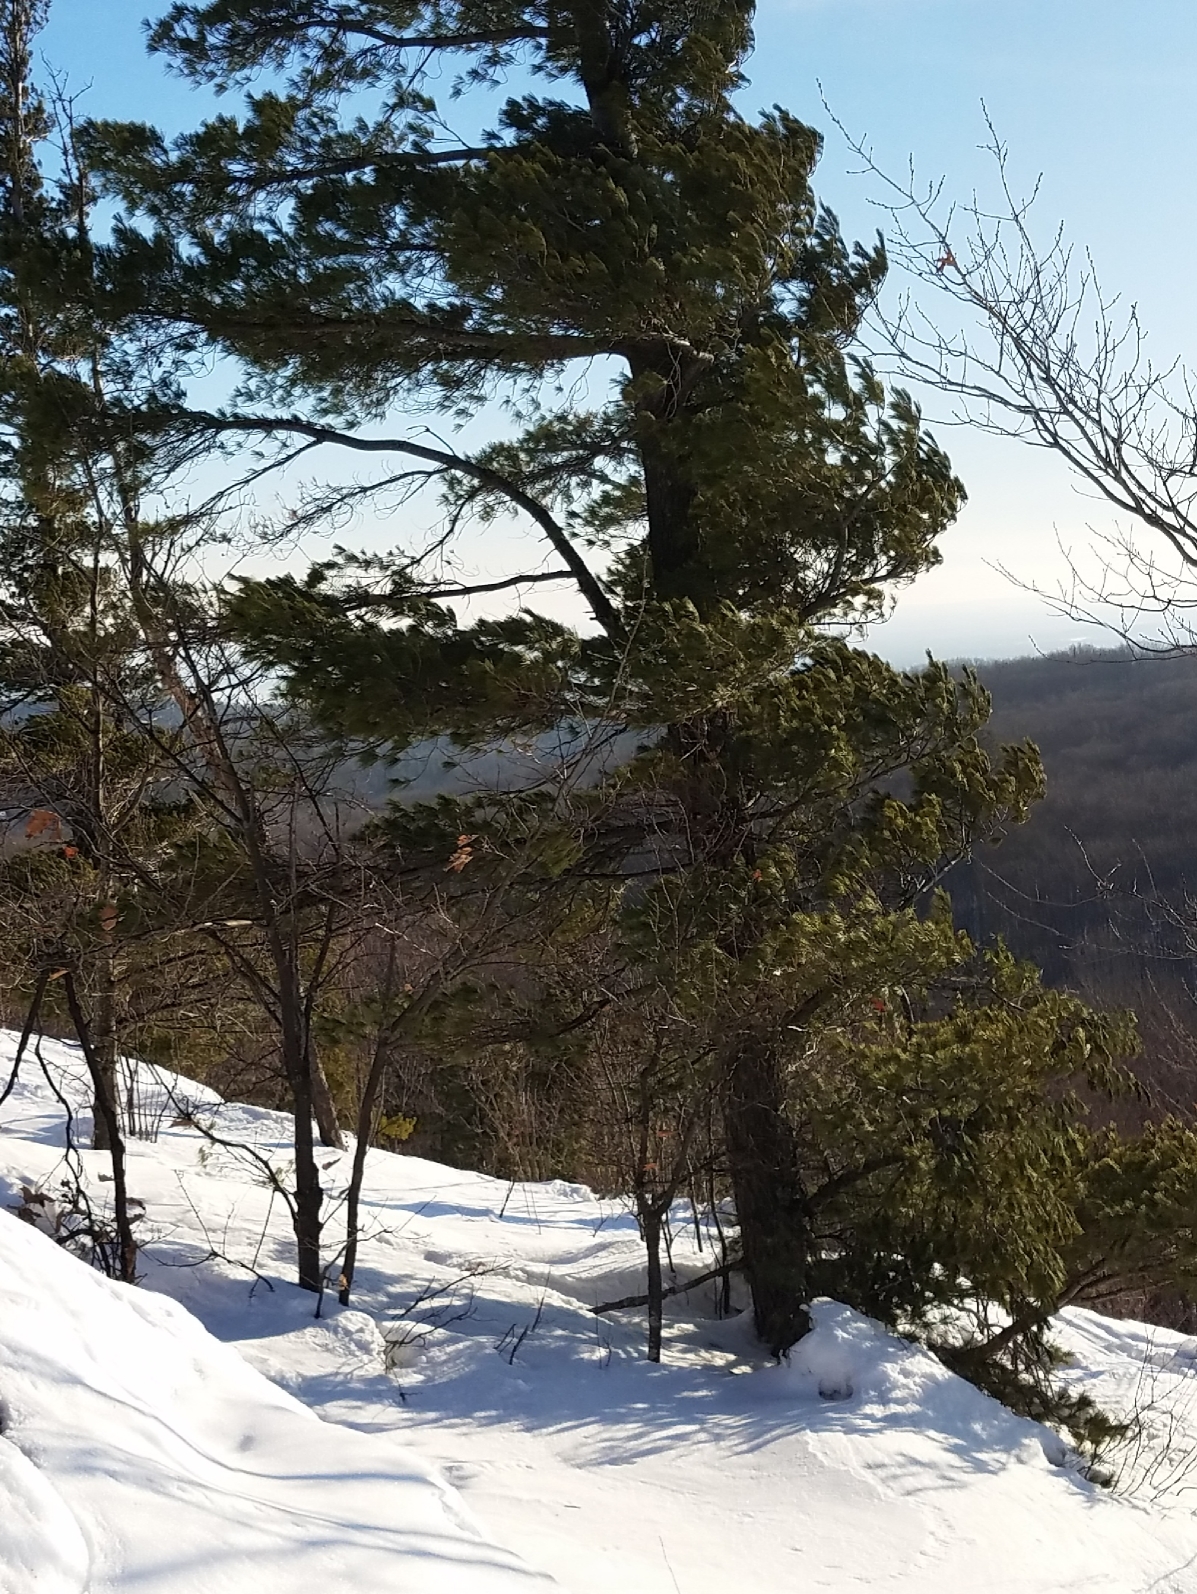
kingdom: Plantae
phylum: Tracheophyta
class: Pinopsida
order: Pinales
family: Pinaceae
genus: Pinus
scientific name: Pinus strobus
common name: Weymouth pine
